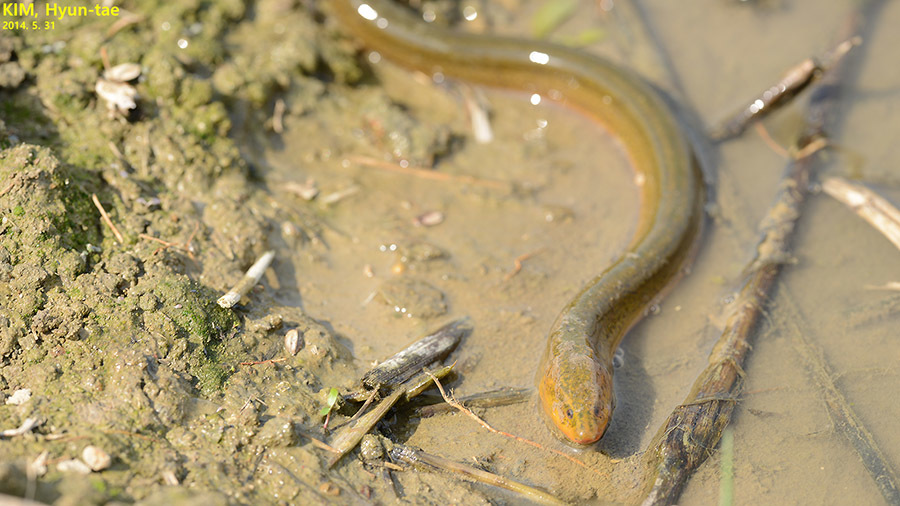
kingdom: Animalia
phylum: Chordata
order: Synbranchiformes
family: Synbranchidae
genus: Monopterus
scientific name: Monopterus albus
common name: Asian swamp eel
